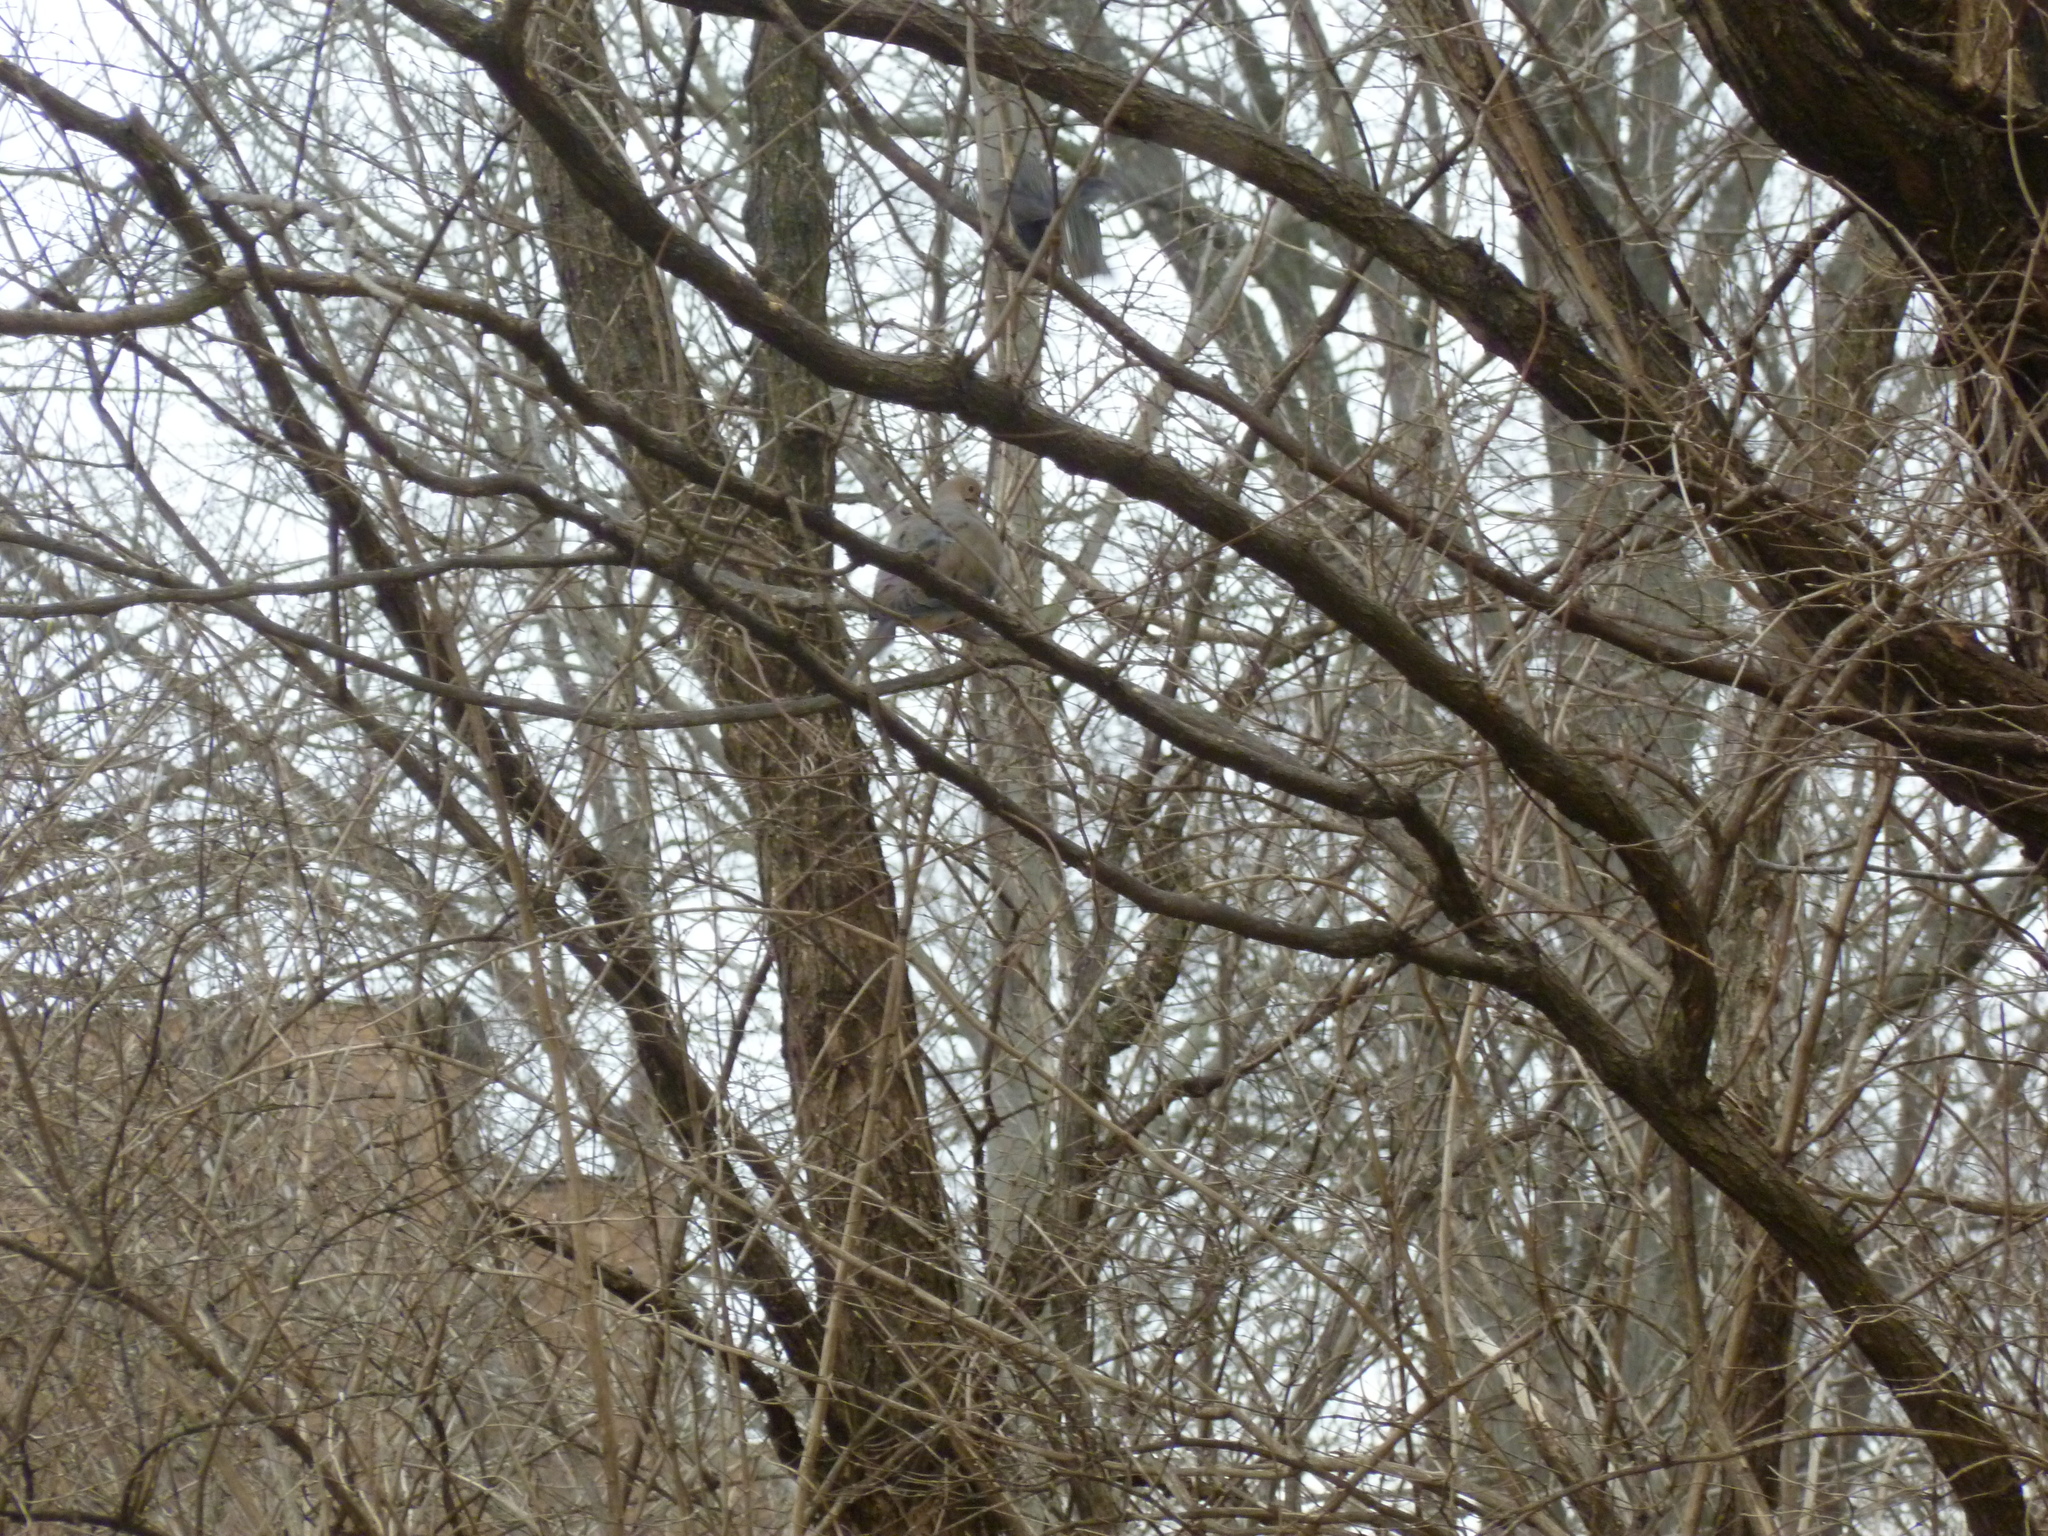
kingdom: Animalia
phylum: Chordata
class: Aves
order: Columbiformes
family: Columbidae
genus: Zenaida
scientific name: Zenaida macroura
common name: Mourning dove
